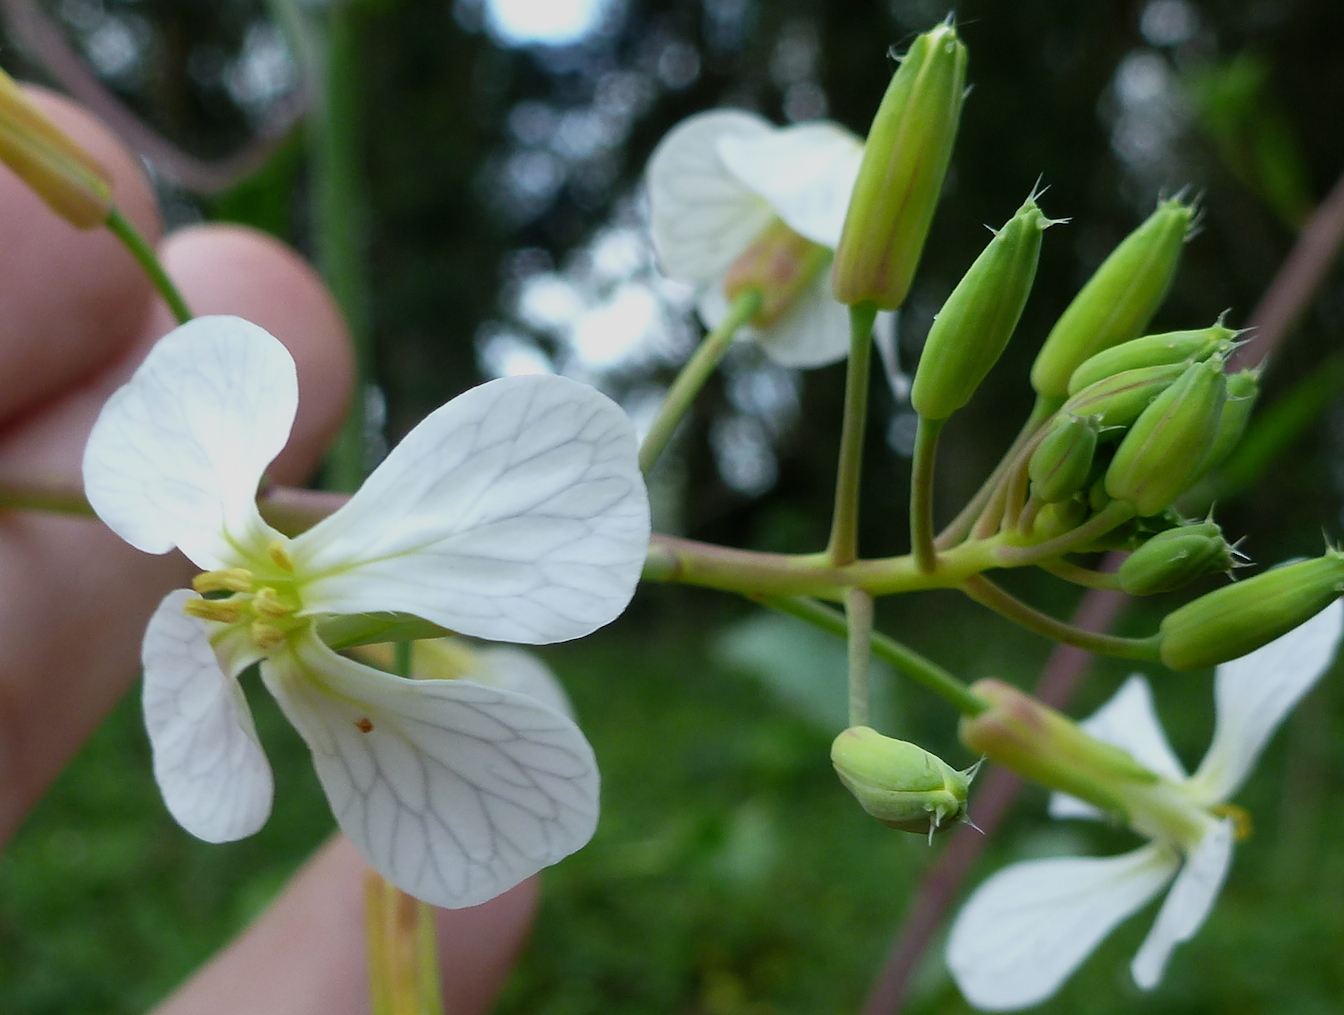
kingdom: Plantae
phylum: Tracheophyta
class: Magnoliopsida
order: Brassicales
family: Brassicaceae
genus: Raphanus
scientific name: Raphanus raphanistrum
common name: Wild radish
